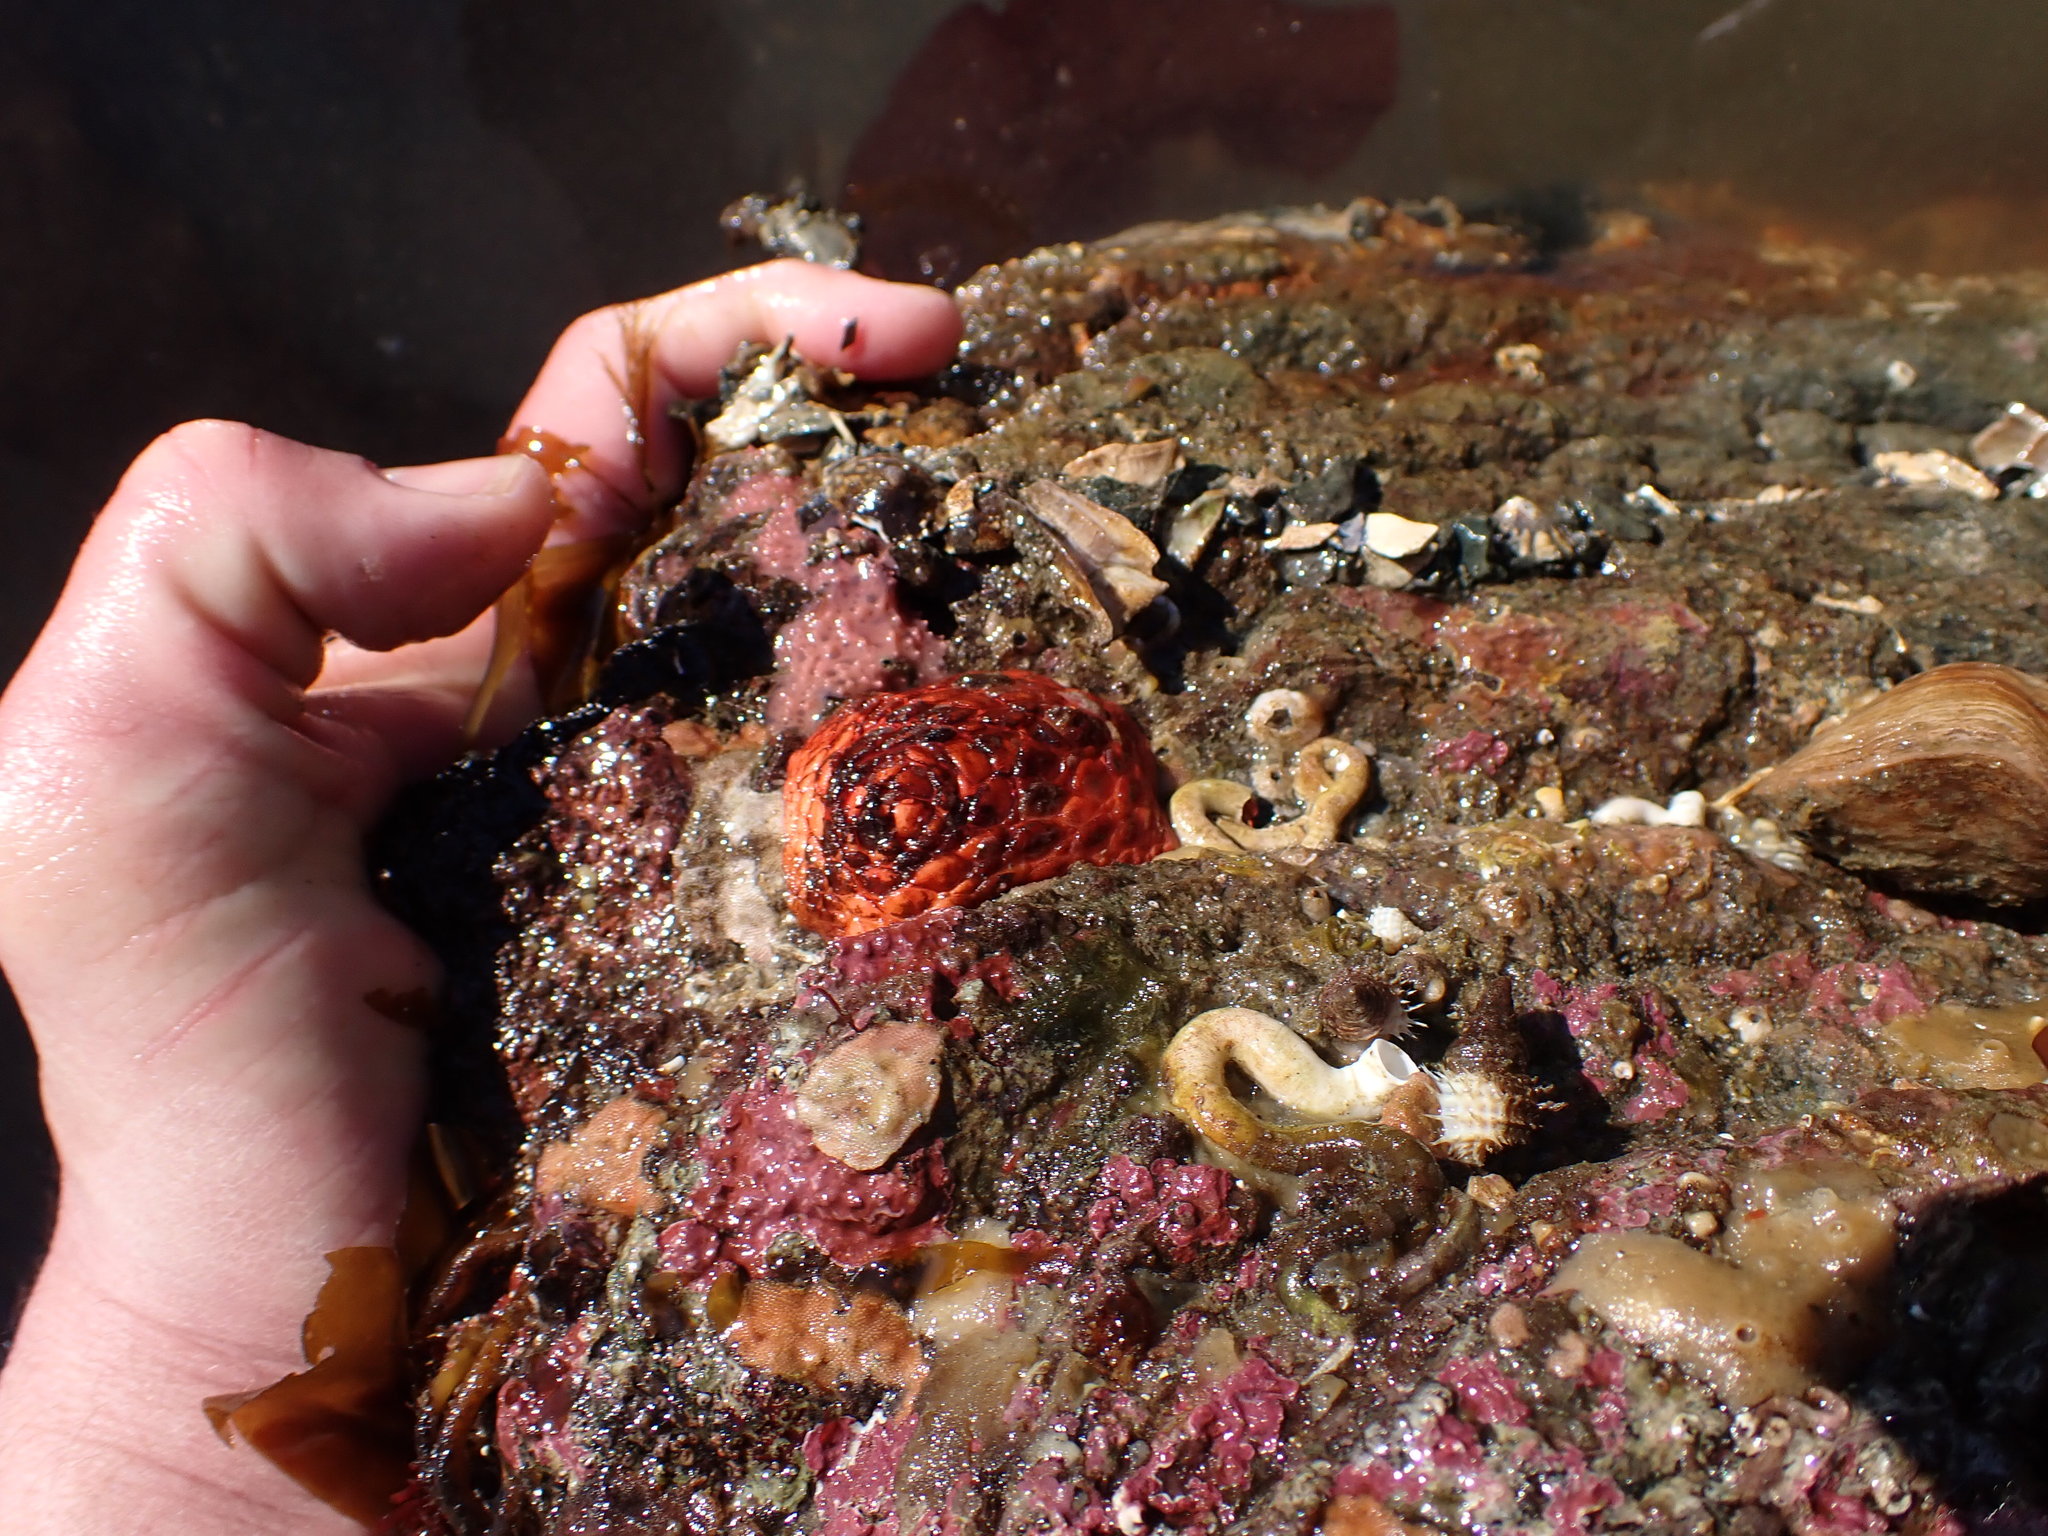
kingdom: Animalia
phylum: Echinodermata
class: Holothuroidea
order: Dendrochirotida
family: Psolidae
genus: Psolus
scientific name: Psolus chitonoides
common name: Creeping pedal sea cucumber
